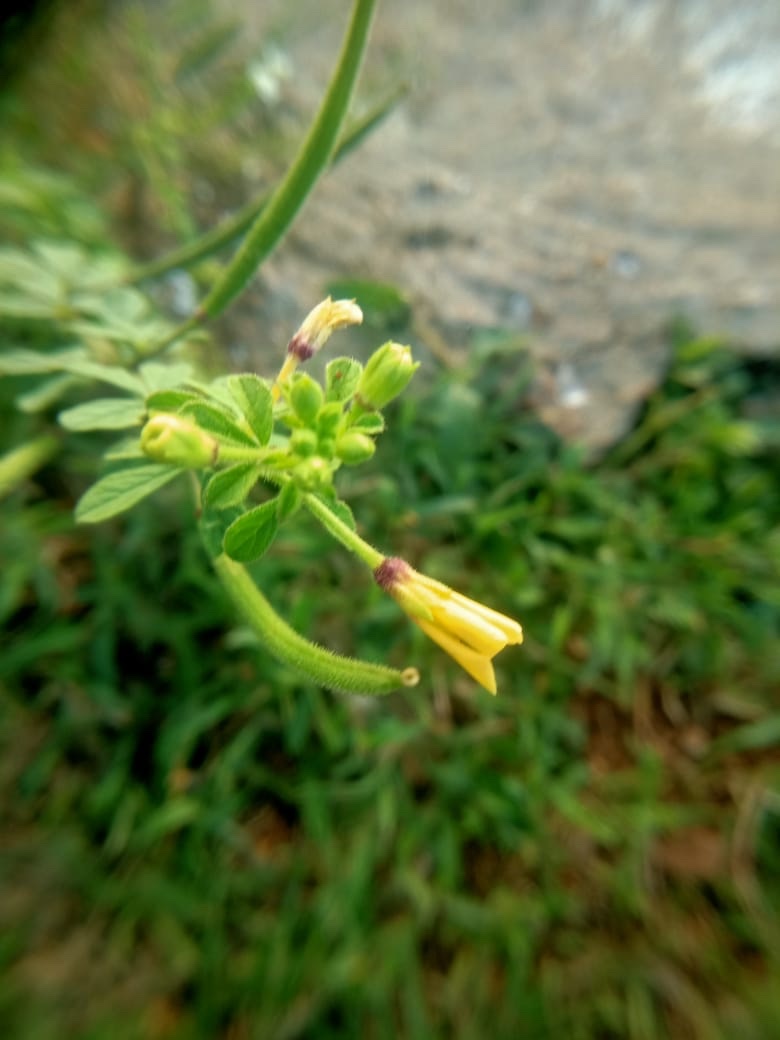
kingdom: Plantae
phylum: Tracheophyta
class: Magnoliopsida
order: Brassicales
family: Cleomaceae
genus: Arivela
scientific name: Arivela viscosa
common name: Asian spiderflower
